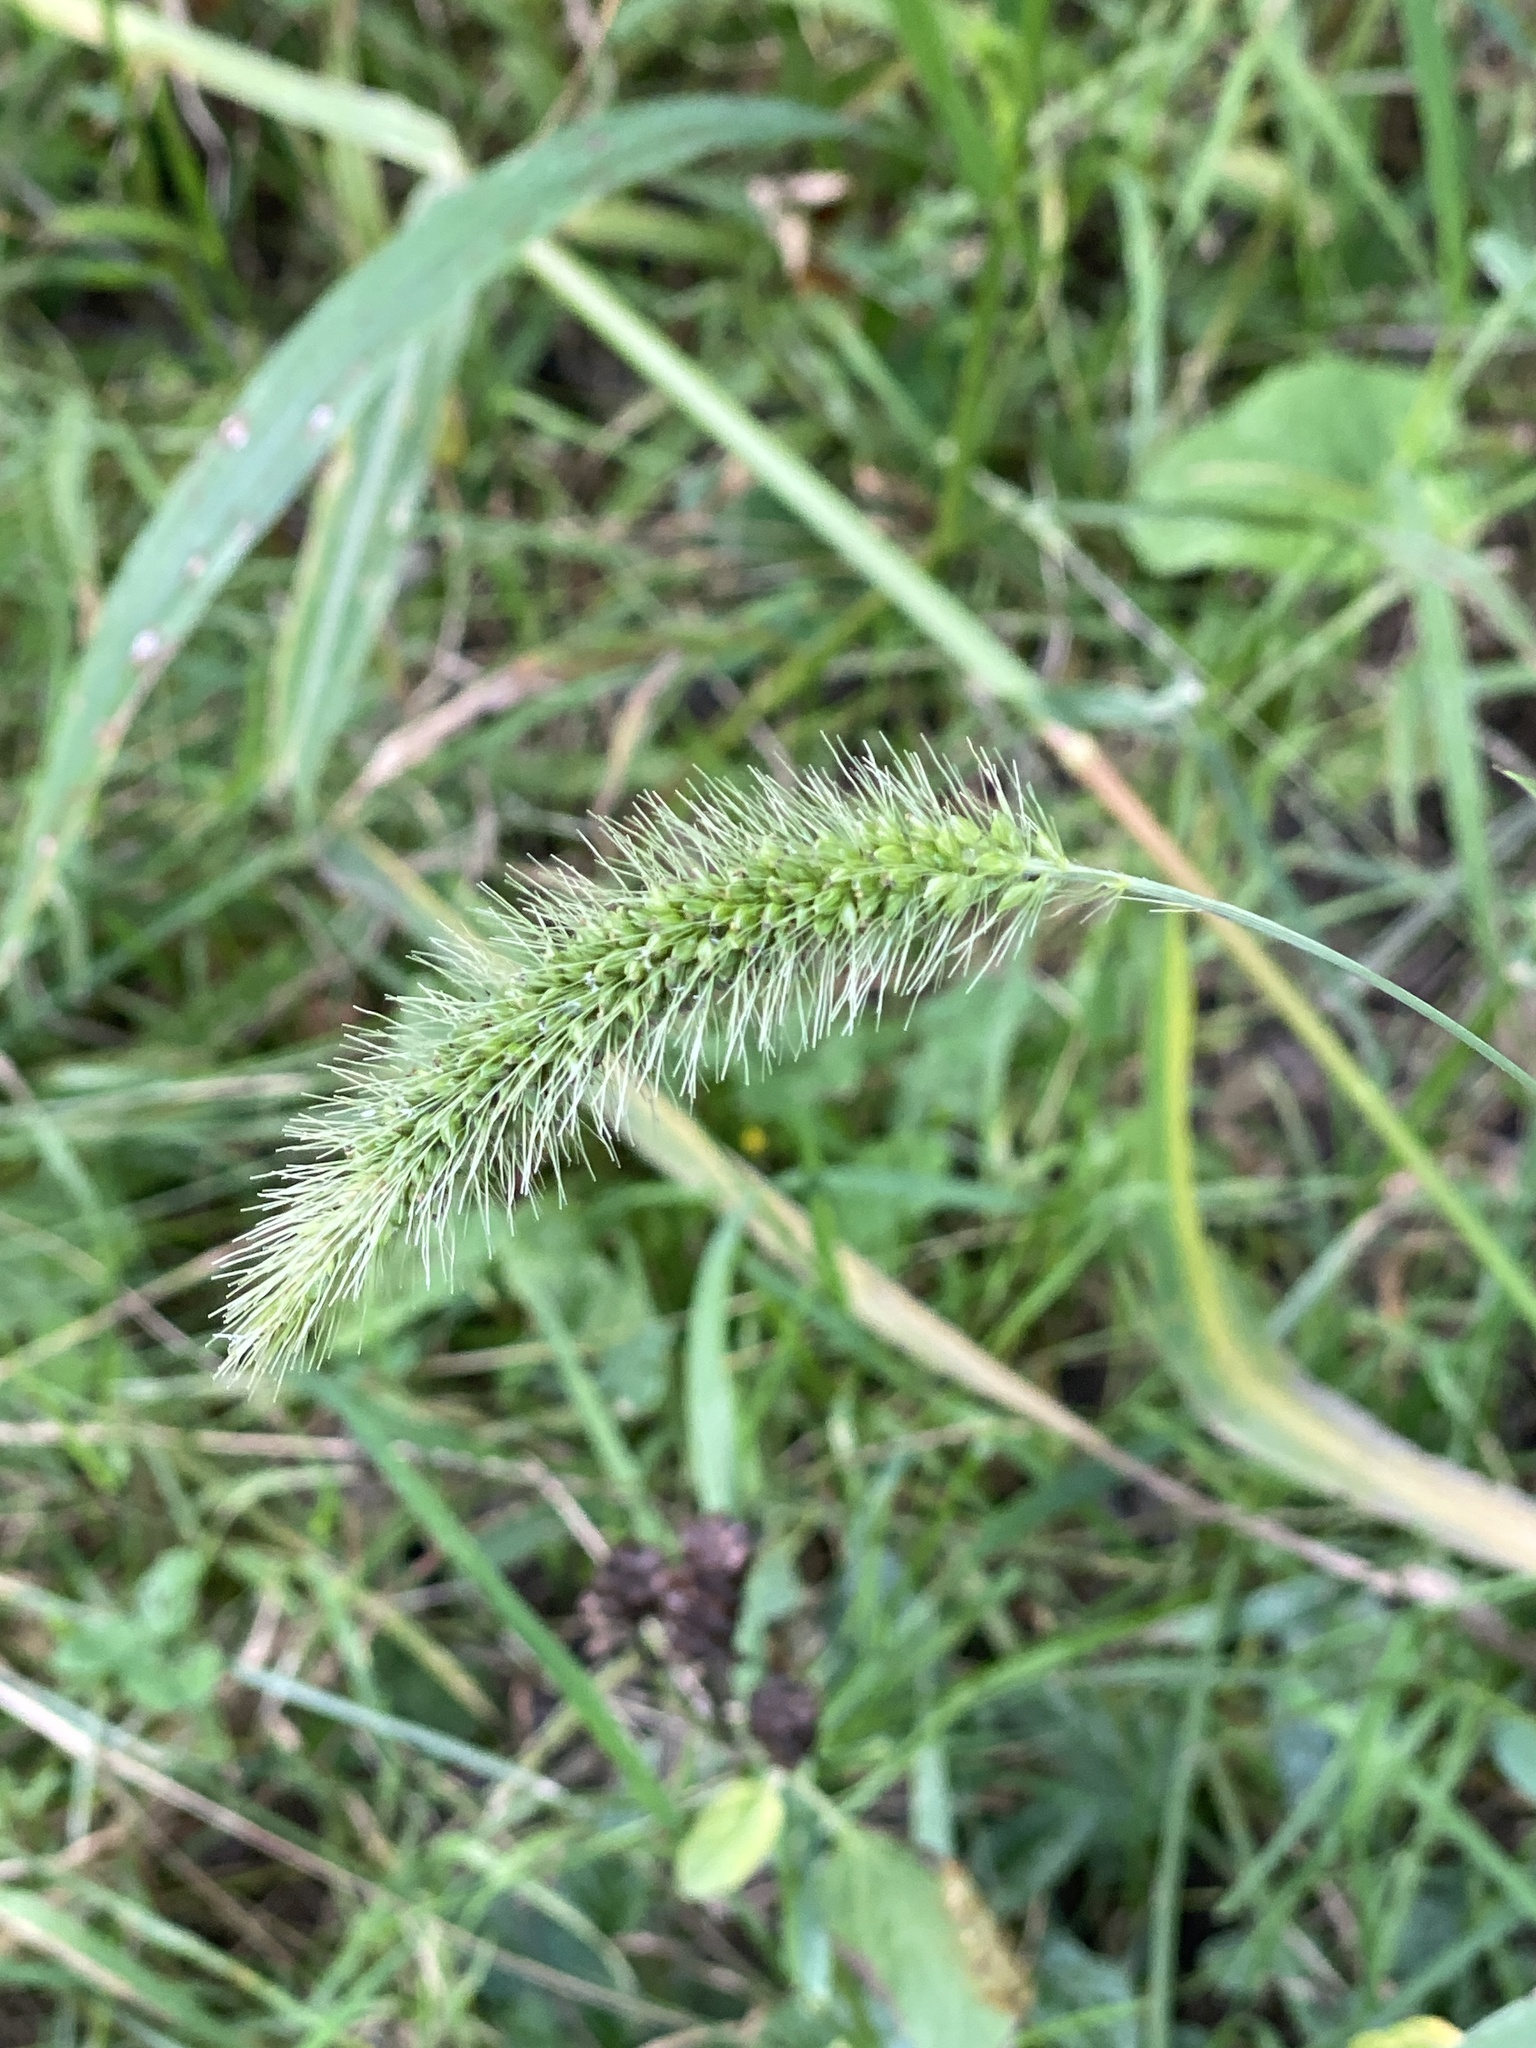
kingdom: Plantae
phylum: Tracheophyta
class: Liliopsida
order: Poales
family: Poaceae
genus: Setaria
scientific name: Setaria faberi
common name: Nodding bristle-grass
